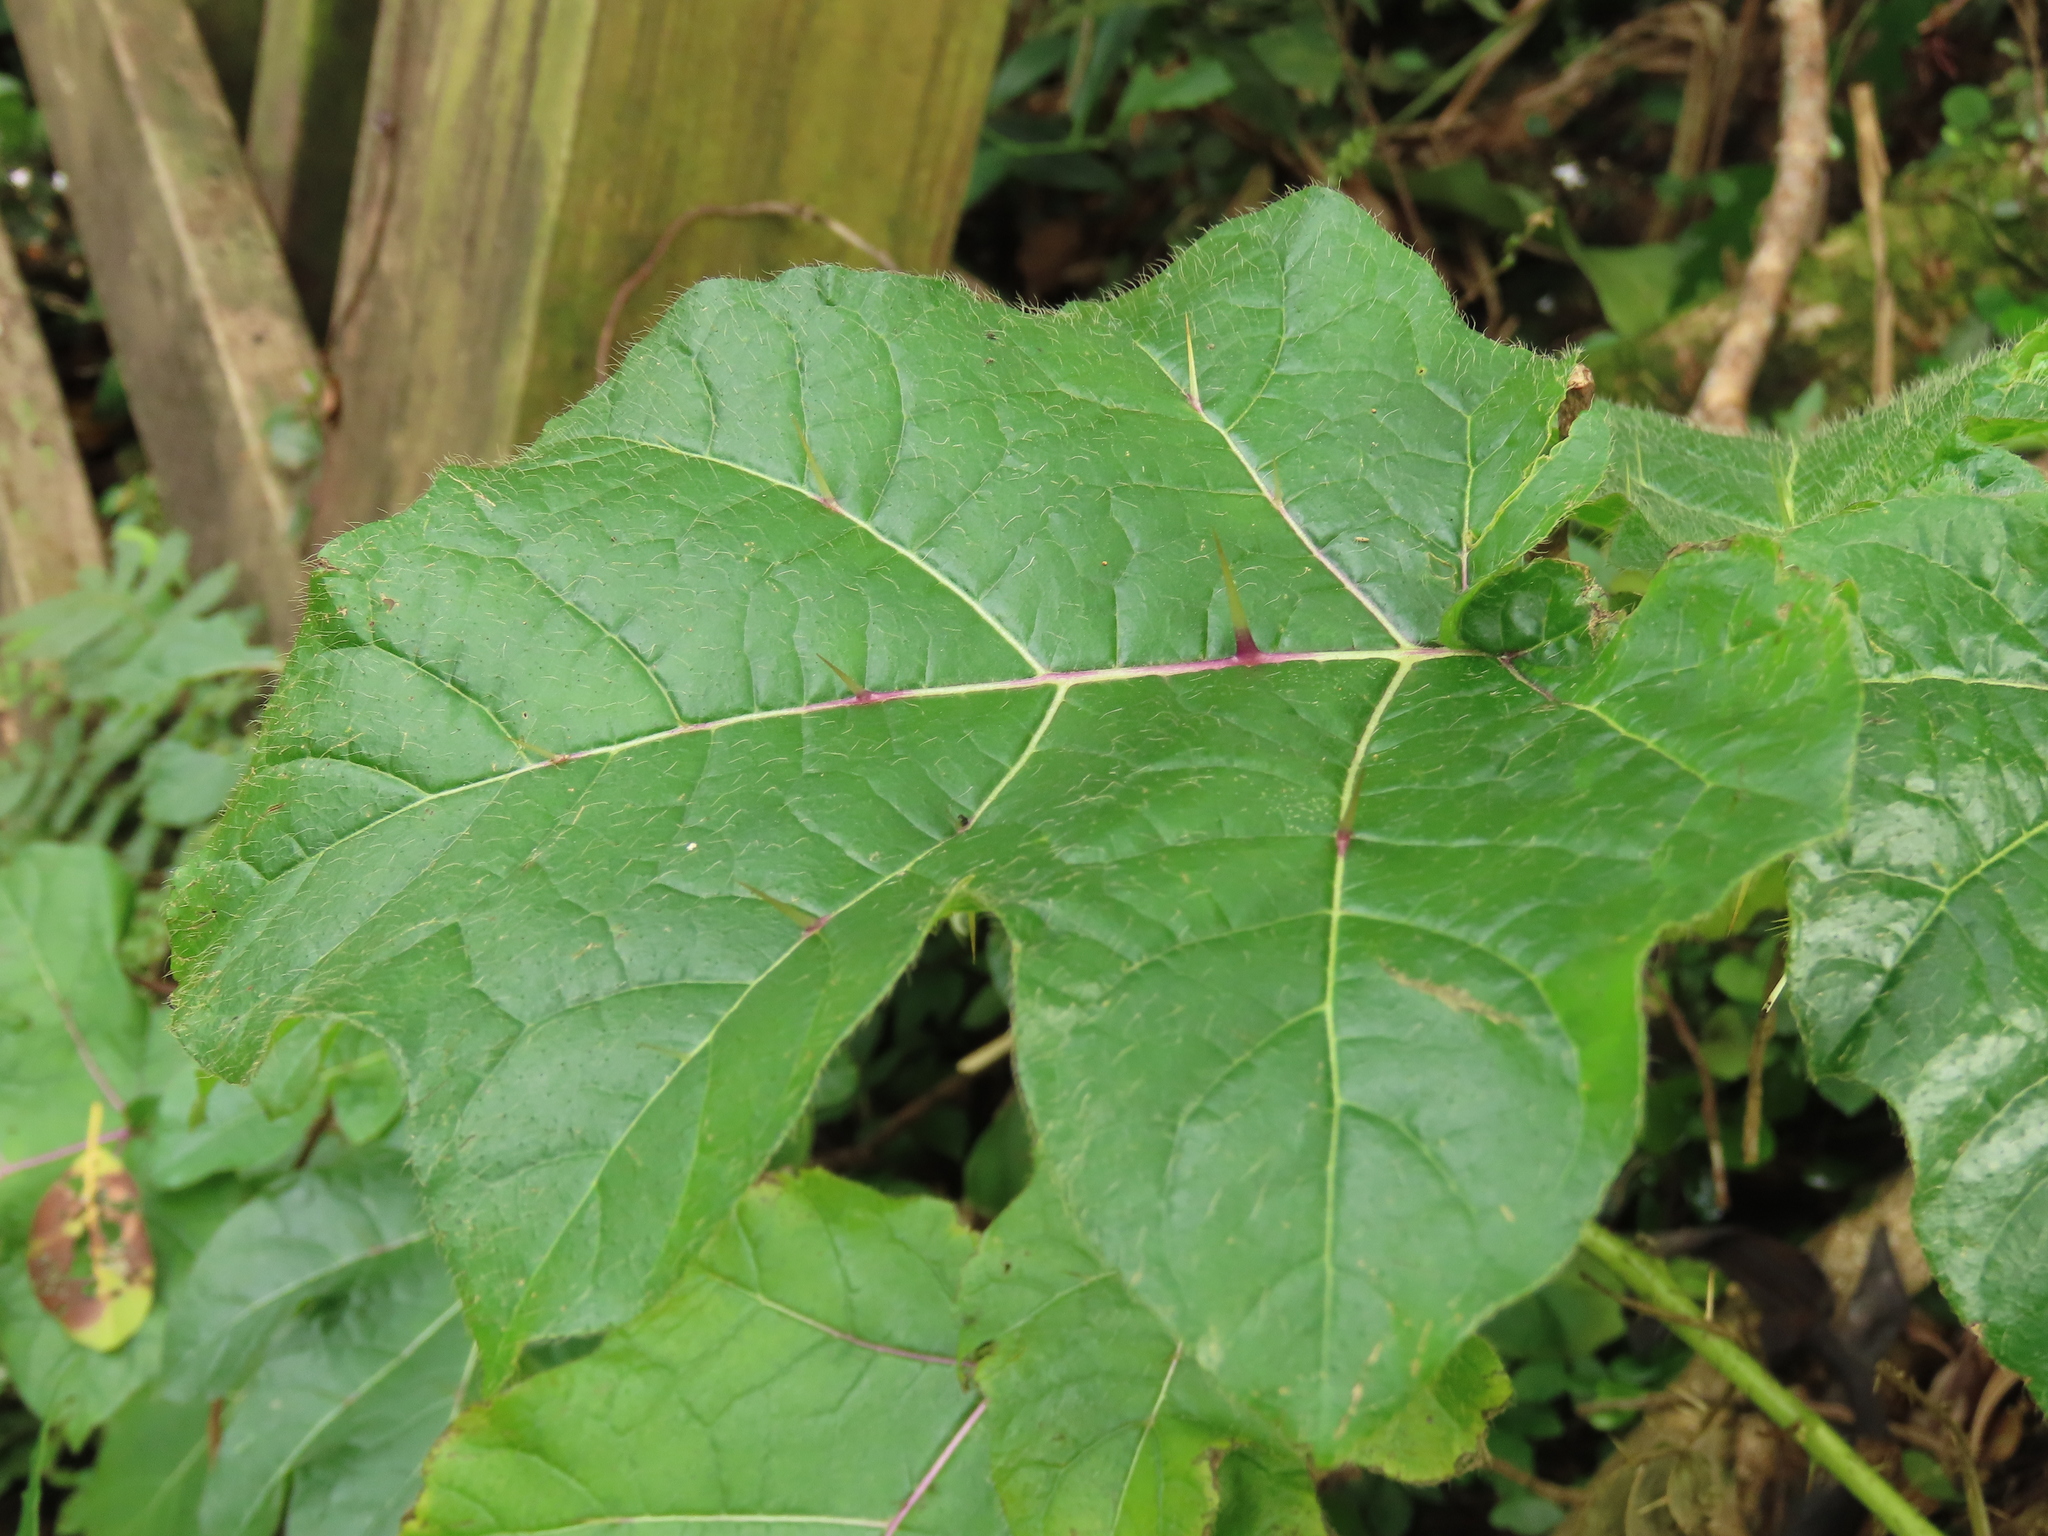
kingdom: Plantae
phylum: Tracheophyta
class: Magnoliopsida
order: Solanales
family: Solanaceae
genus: Solanum
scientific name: Solanum capsicoides
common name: Cockroach berry
